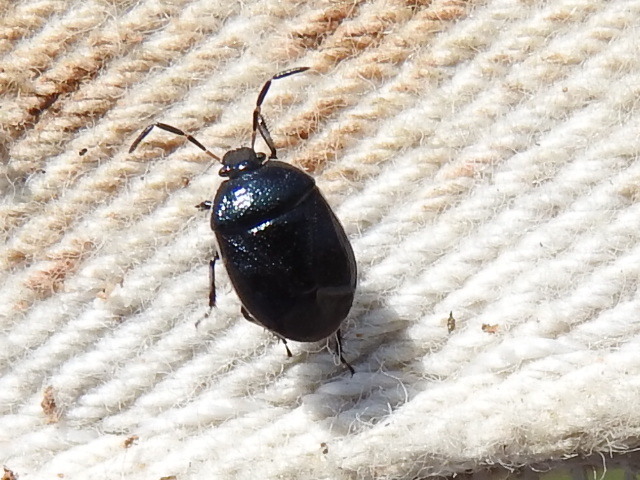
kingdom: Animalia
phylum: Arthropoda
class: Insecta
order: Hemiptera
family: Cydnidae
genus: Sehirus
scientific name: Sehirus cinctus
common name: White-margined burrower bug
